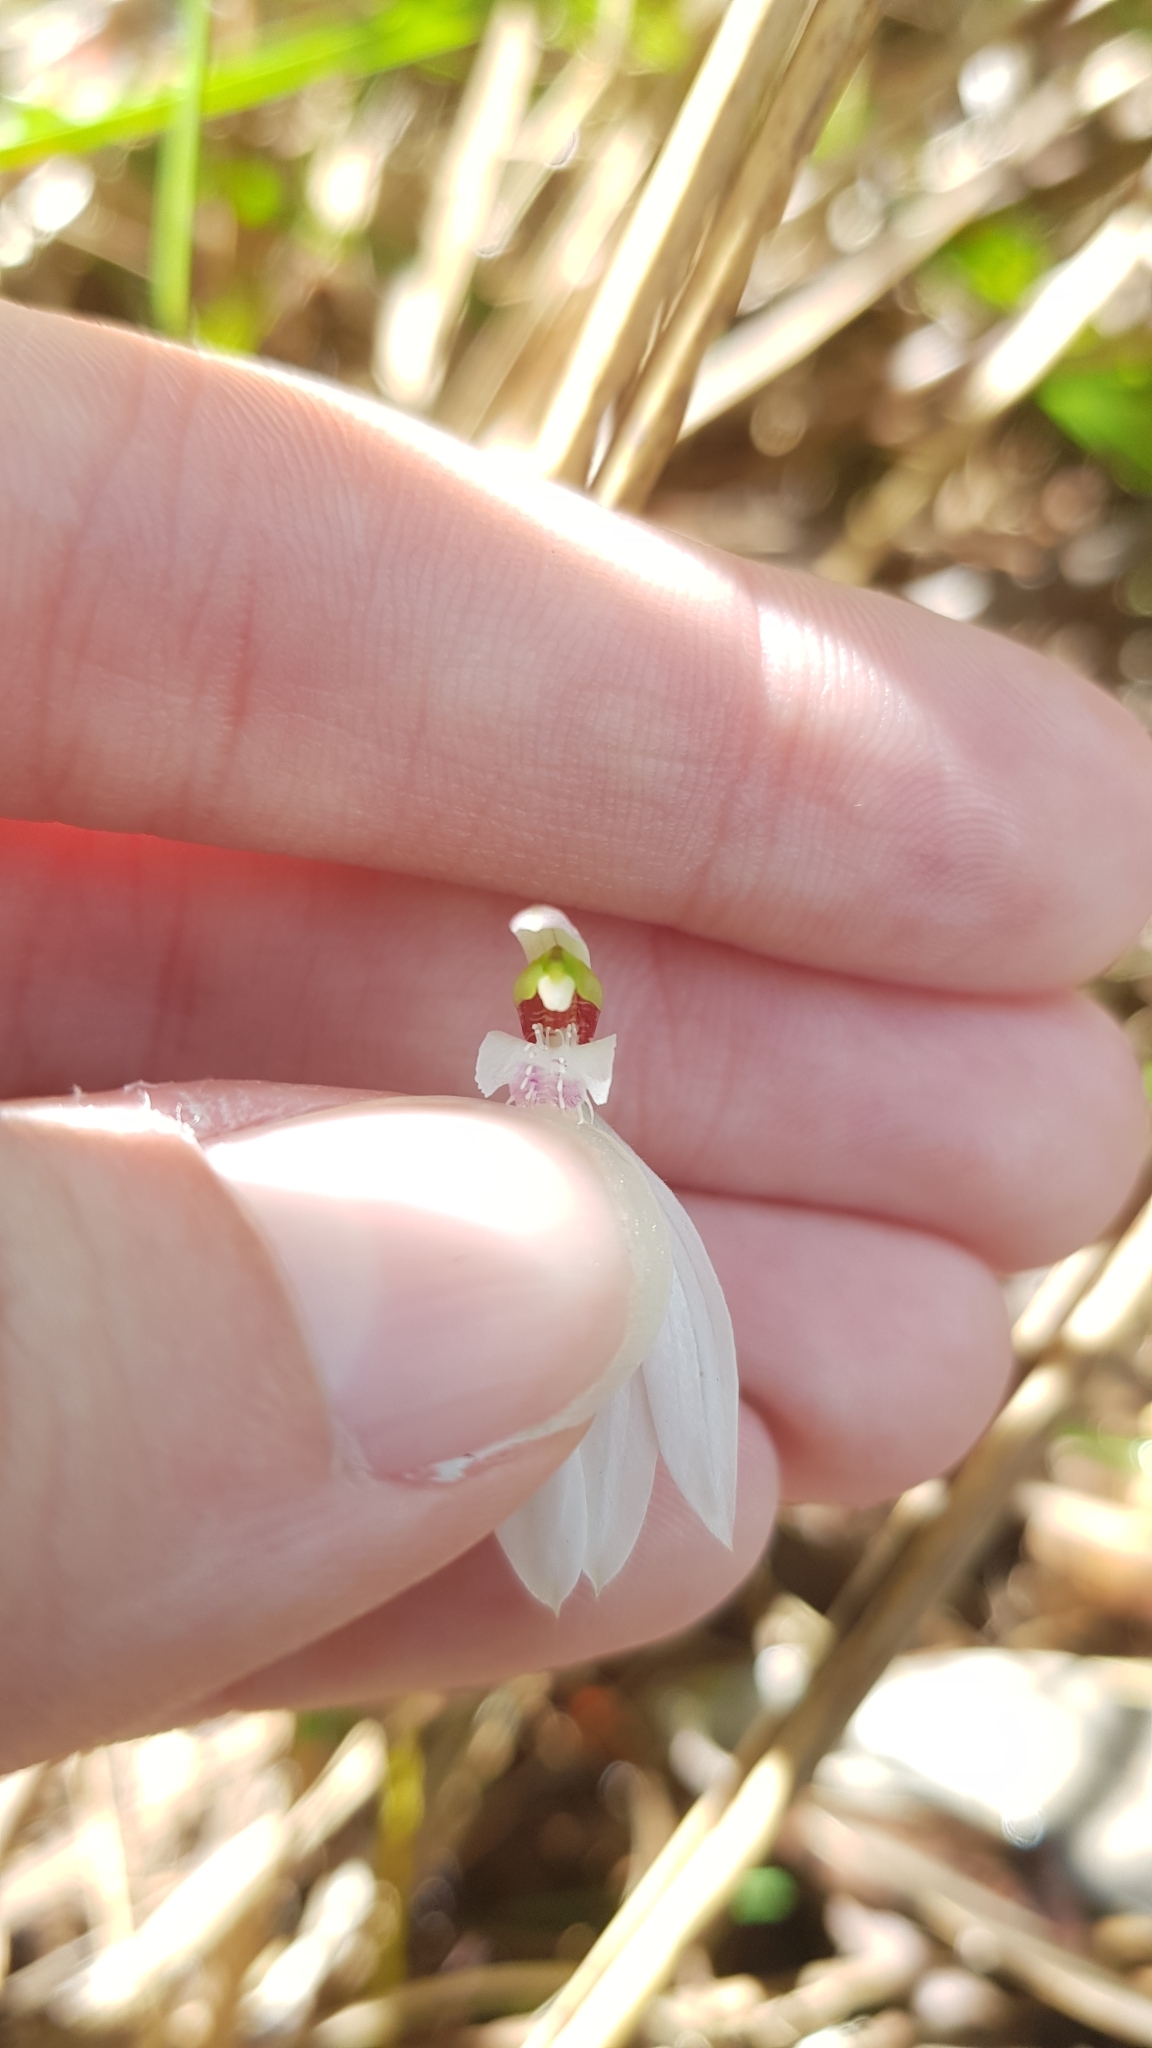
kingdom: Plantae
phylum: Tracheophyta
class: Liliopsida
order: Asparagales
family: Orchidaceae
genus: Caladenia
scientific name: Caladenia catenata
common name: White caladenia
